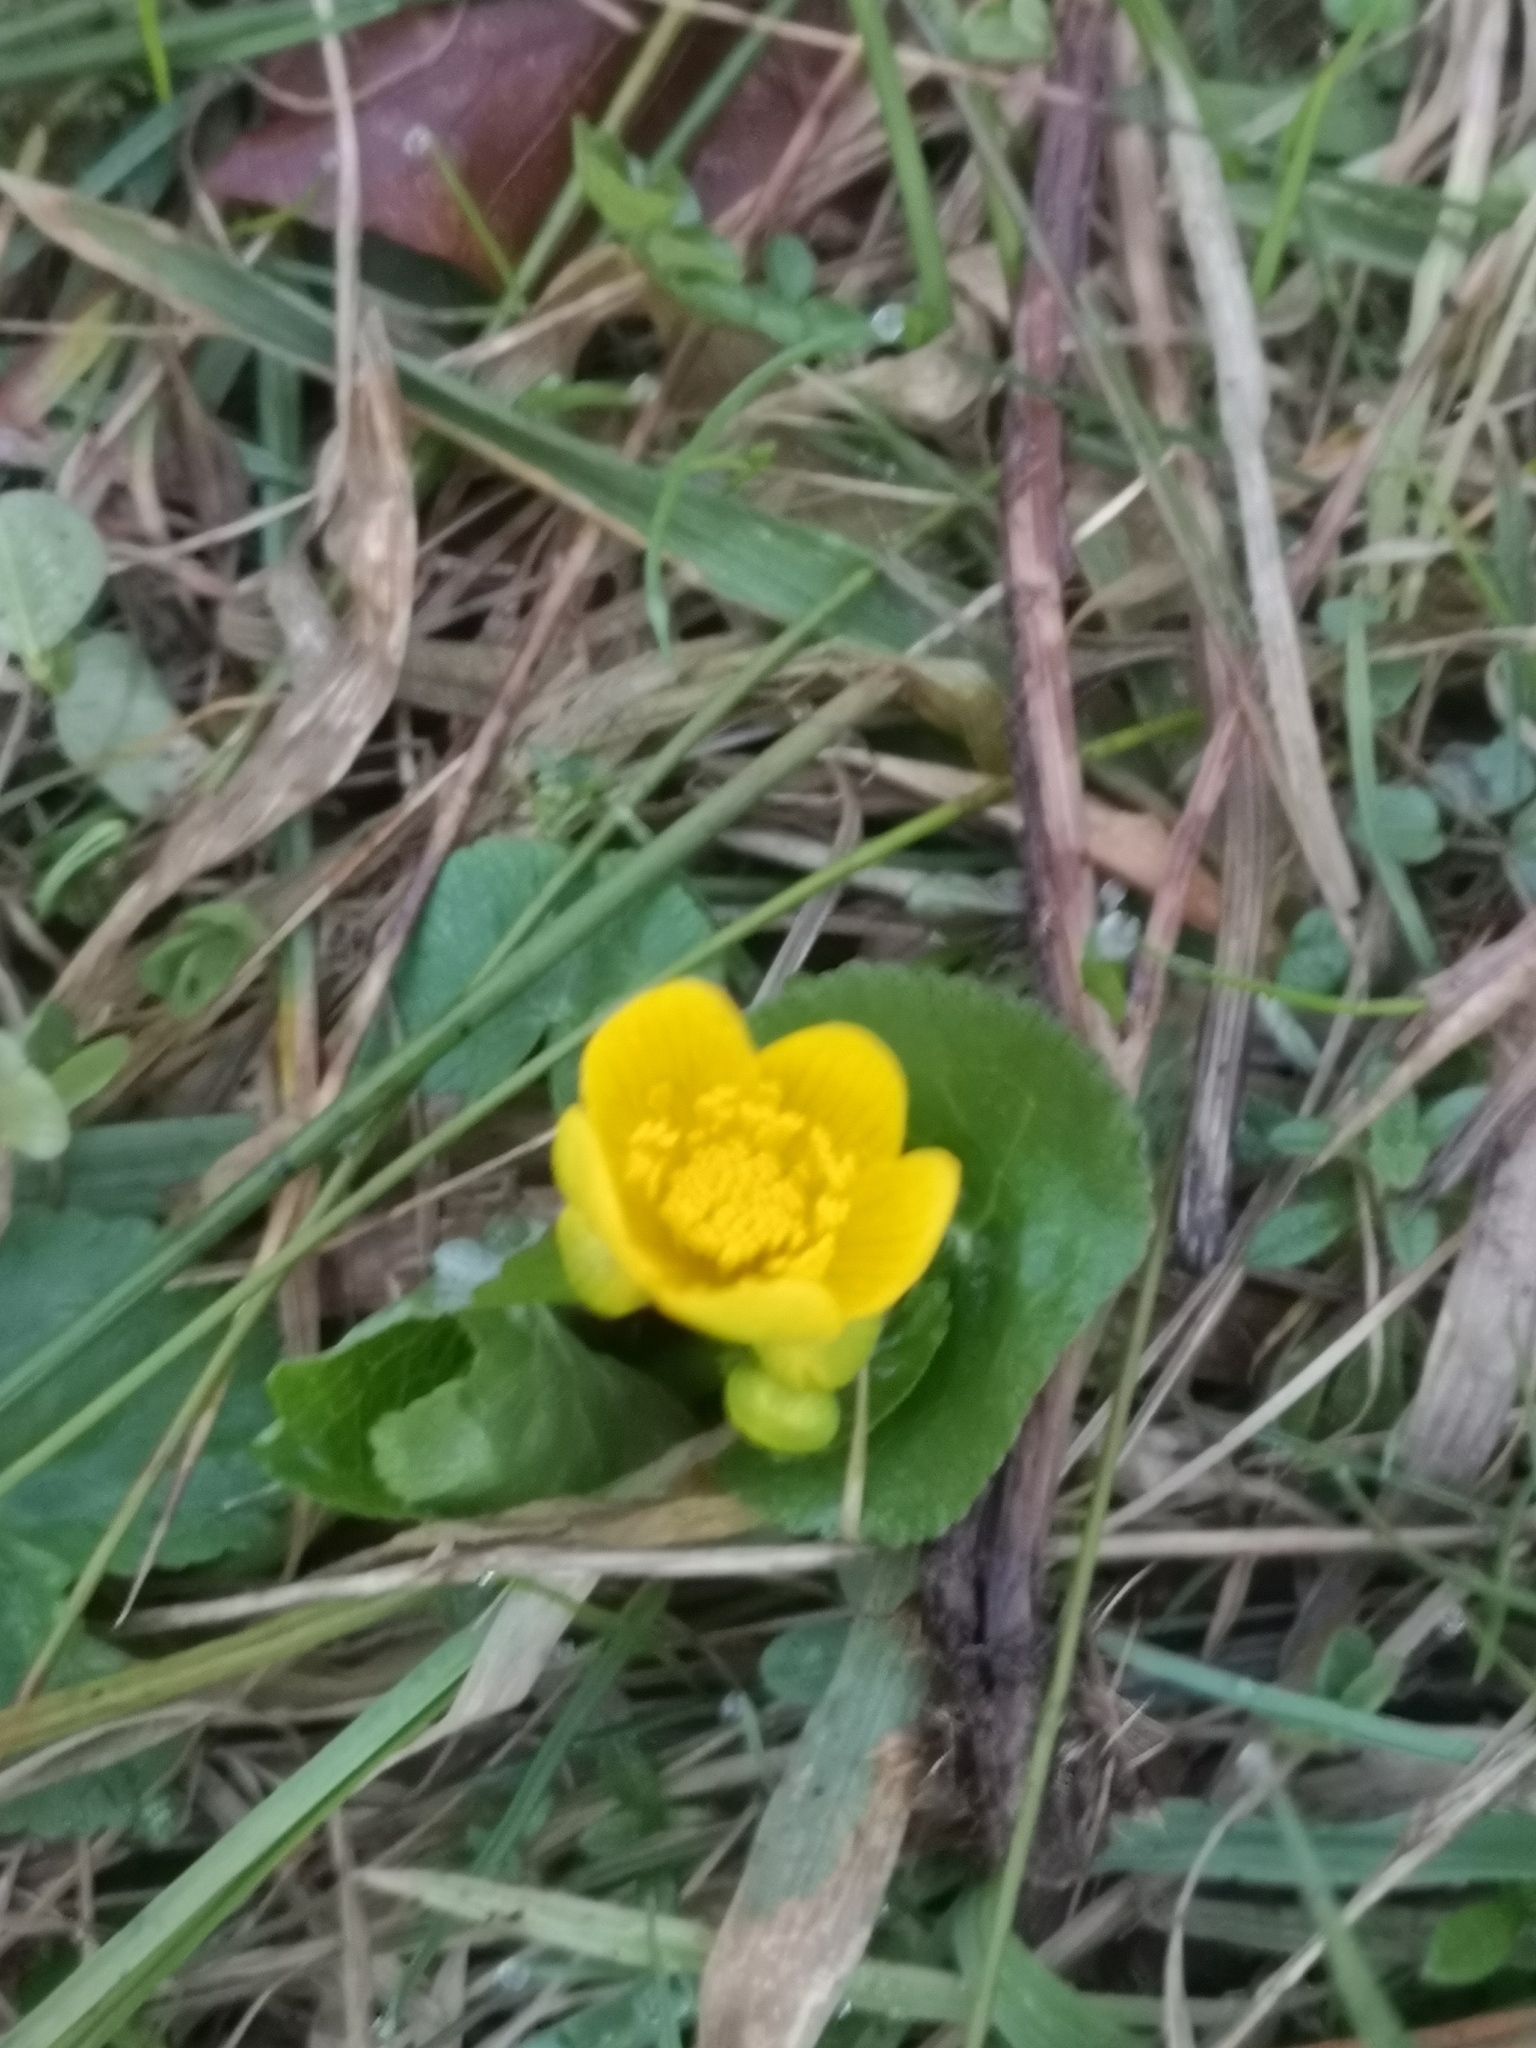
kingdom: Plantae
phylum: Tracheophyta
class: Magnoliopsida
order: Ranunculales
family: Ranunculaceae
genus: Caltha
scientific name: Caltha palustris
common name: Marsh marigold
